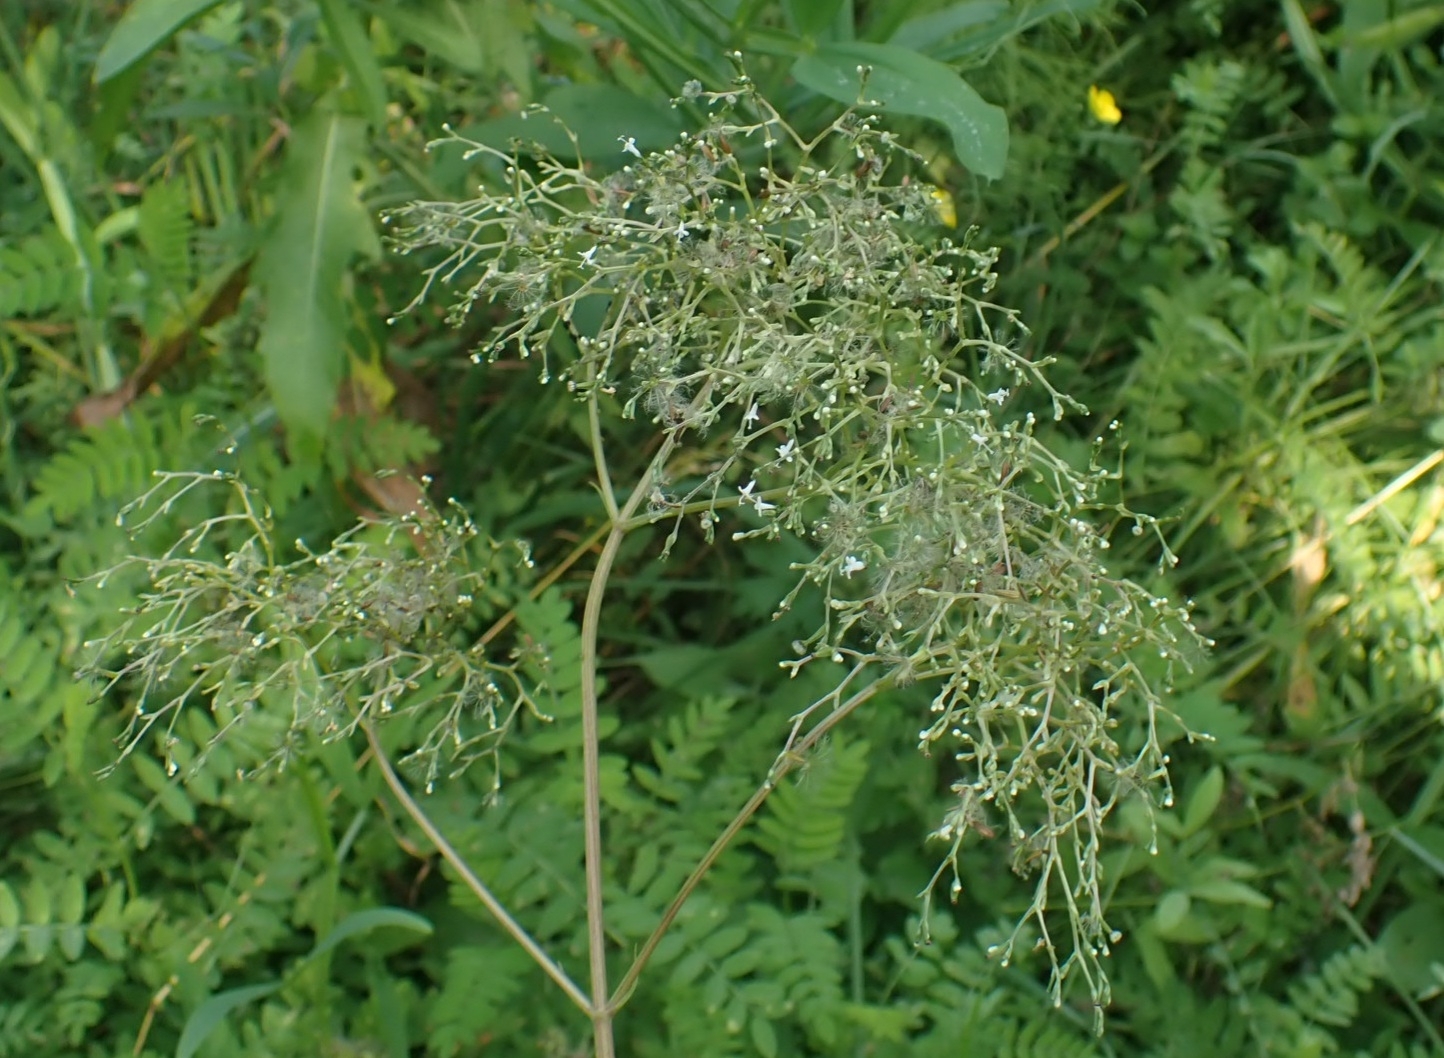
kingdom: Plantae
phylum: Tracheophyta
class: Magnoliopsida
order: Dipsacales
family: Caprifoliaceae
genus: Valeriana
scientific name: Valeriana officinalis
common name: Common valerian
